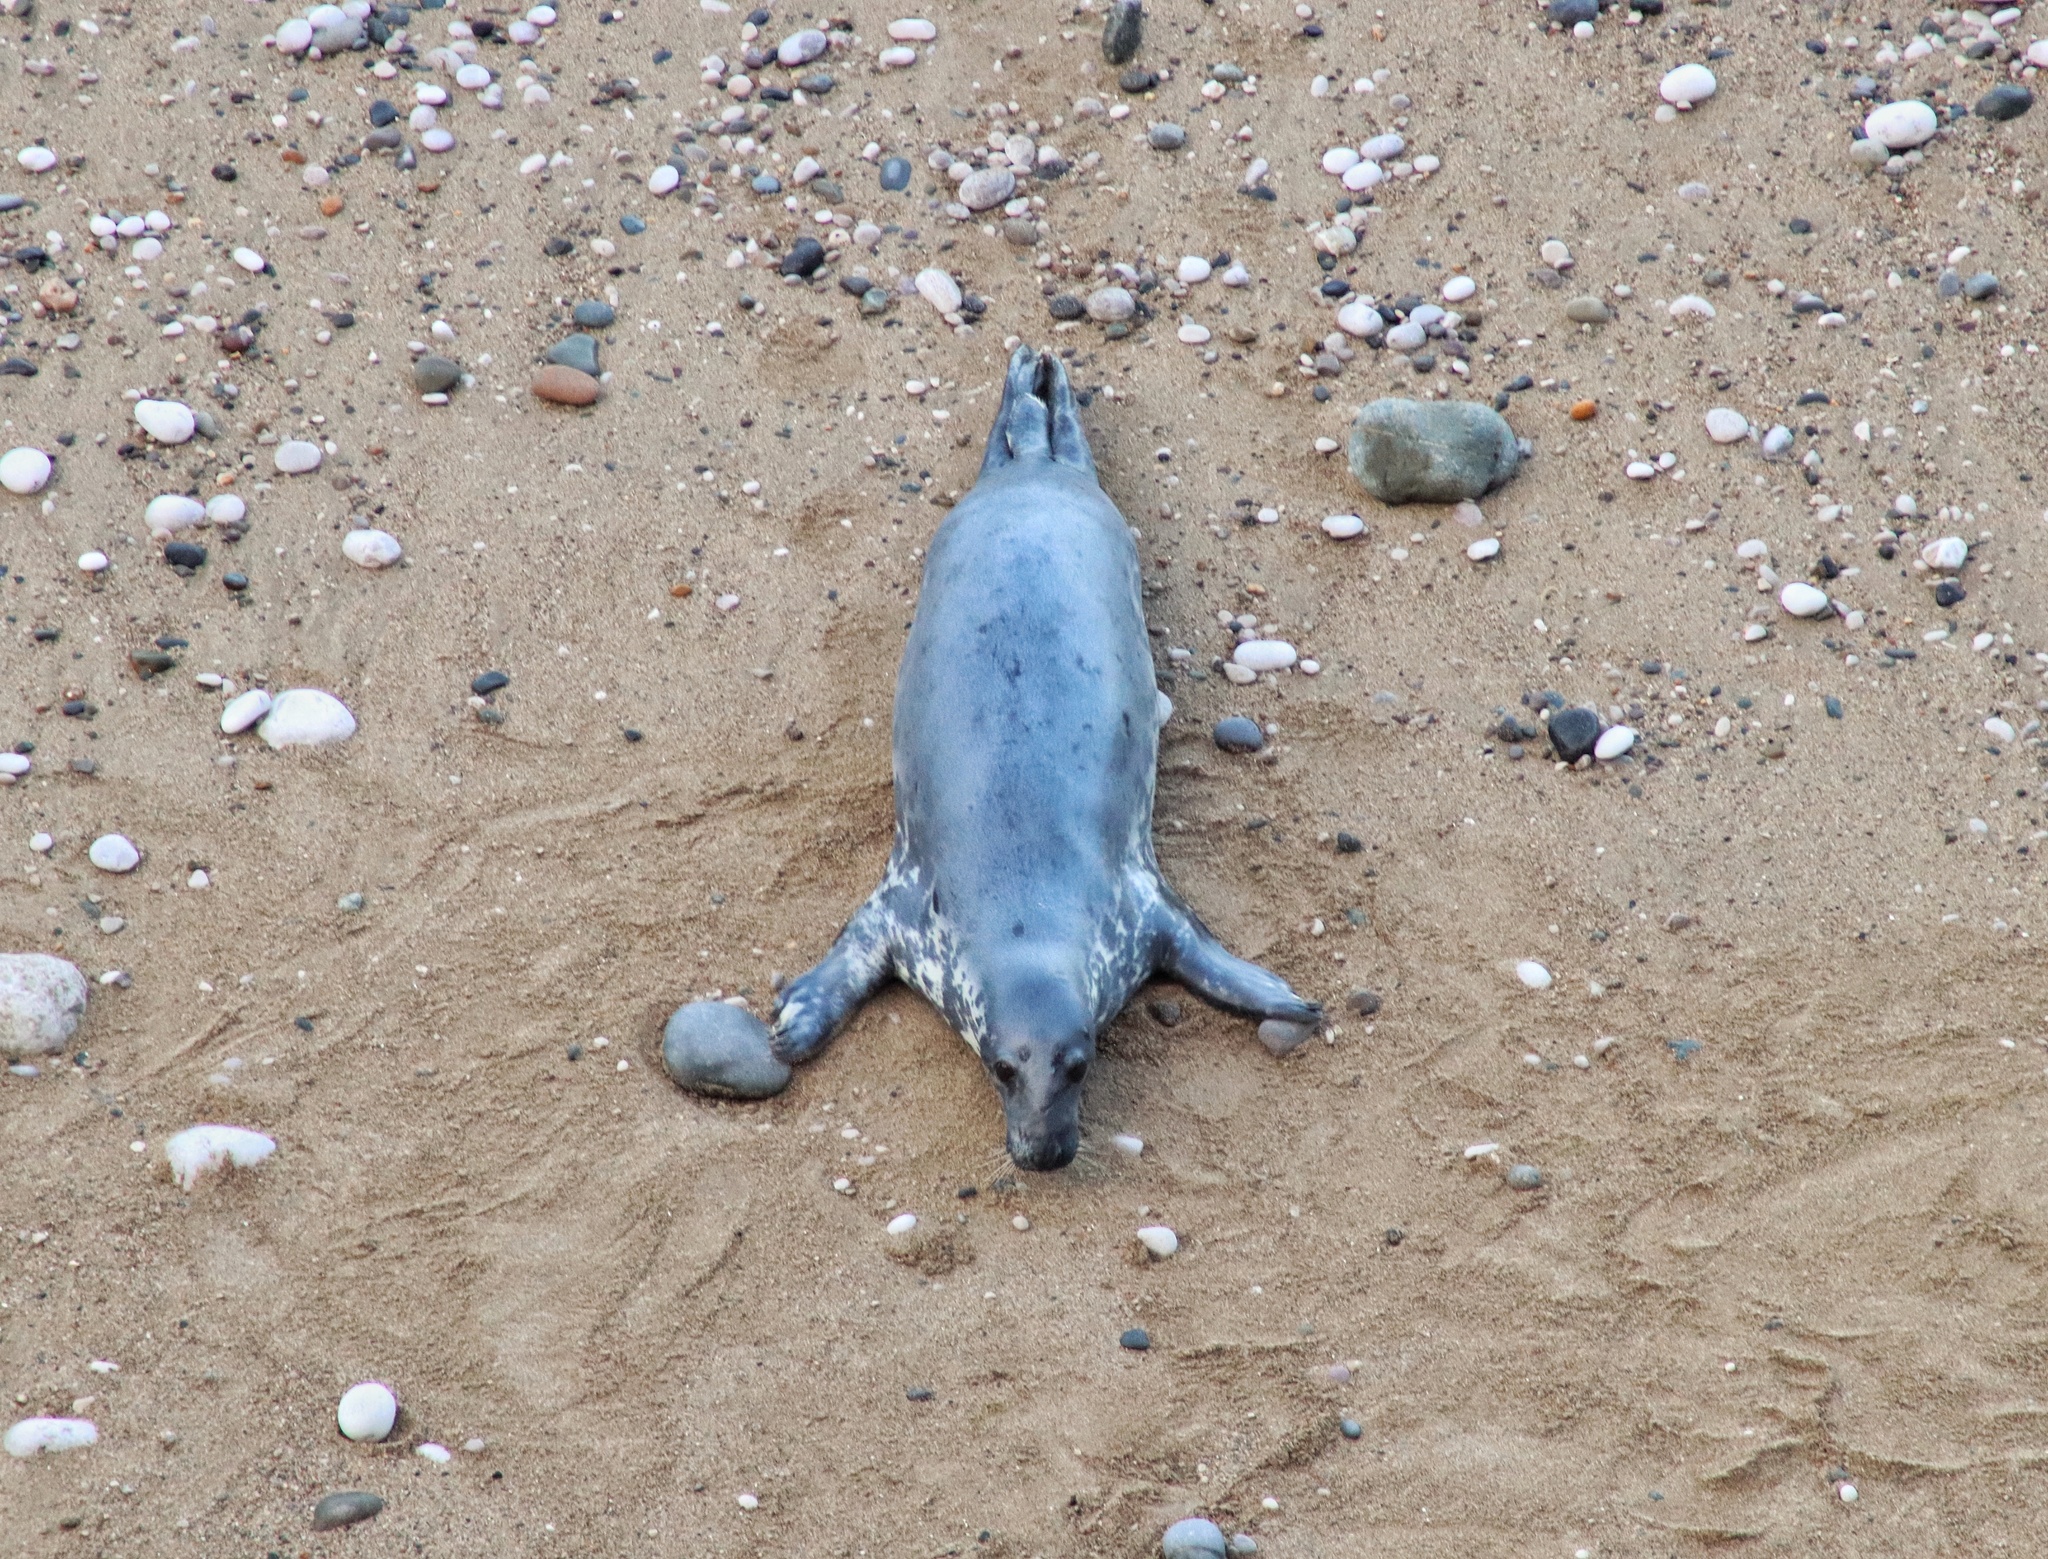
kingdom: Animalia
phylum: Chordata
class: Mammalia
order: Carnivora
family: Phocidae
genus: Halichoerus
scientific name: Halichoerus grypus
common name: Grey seal
